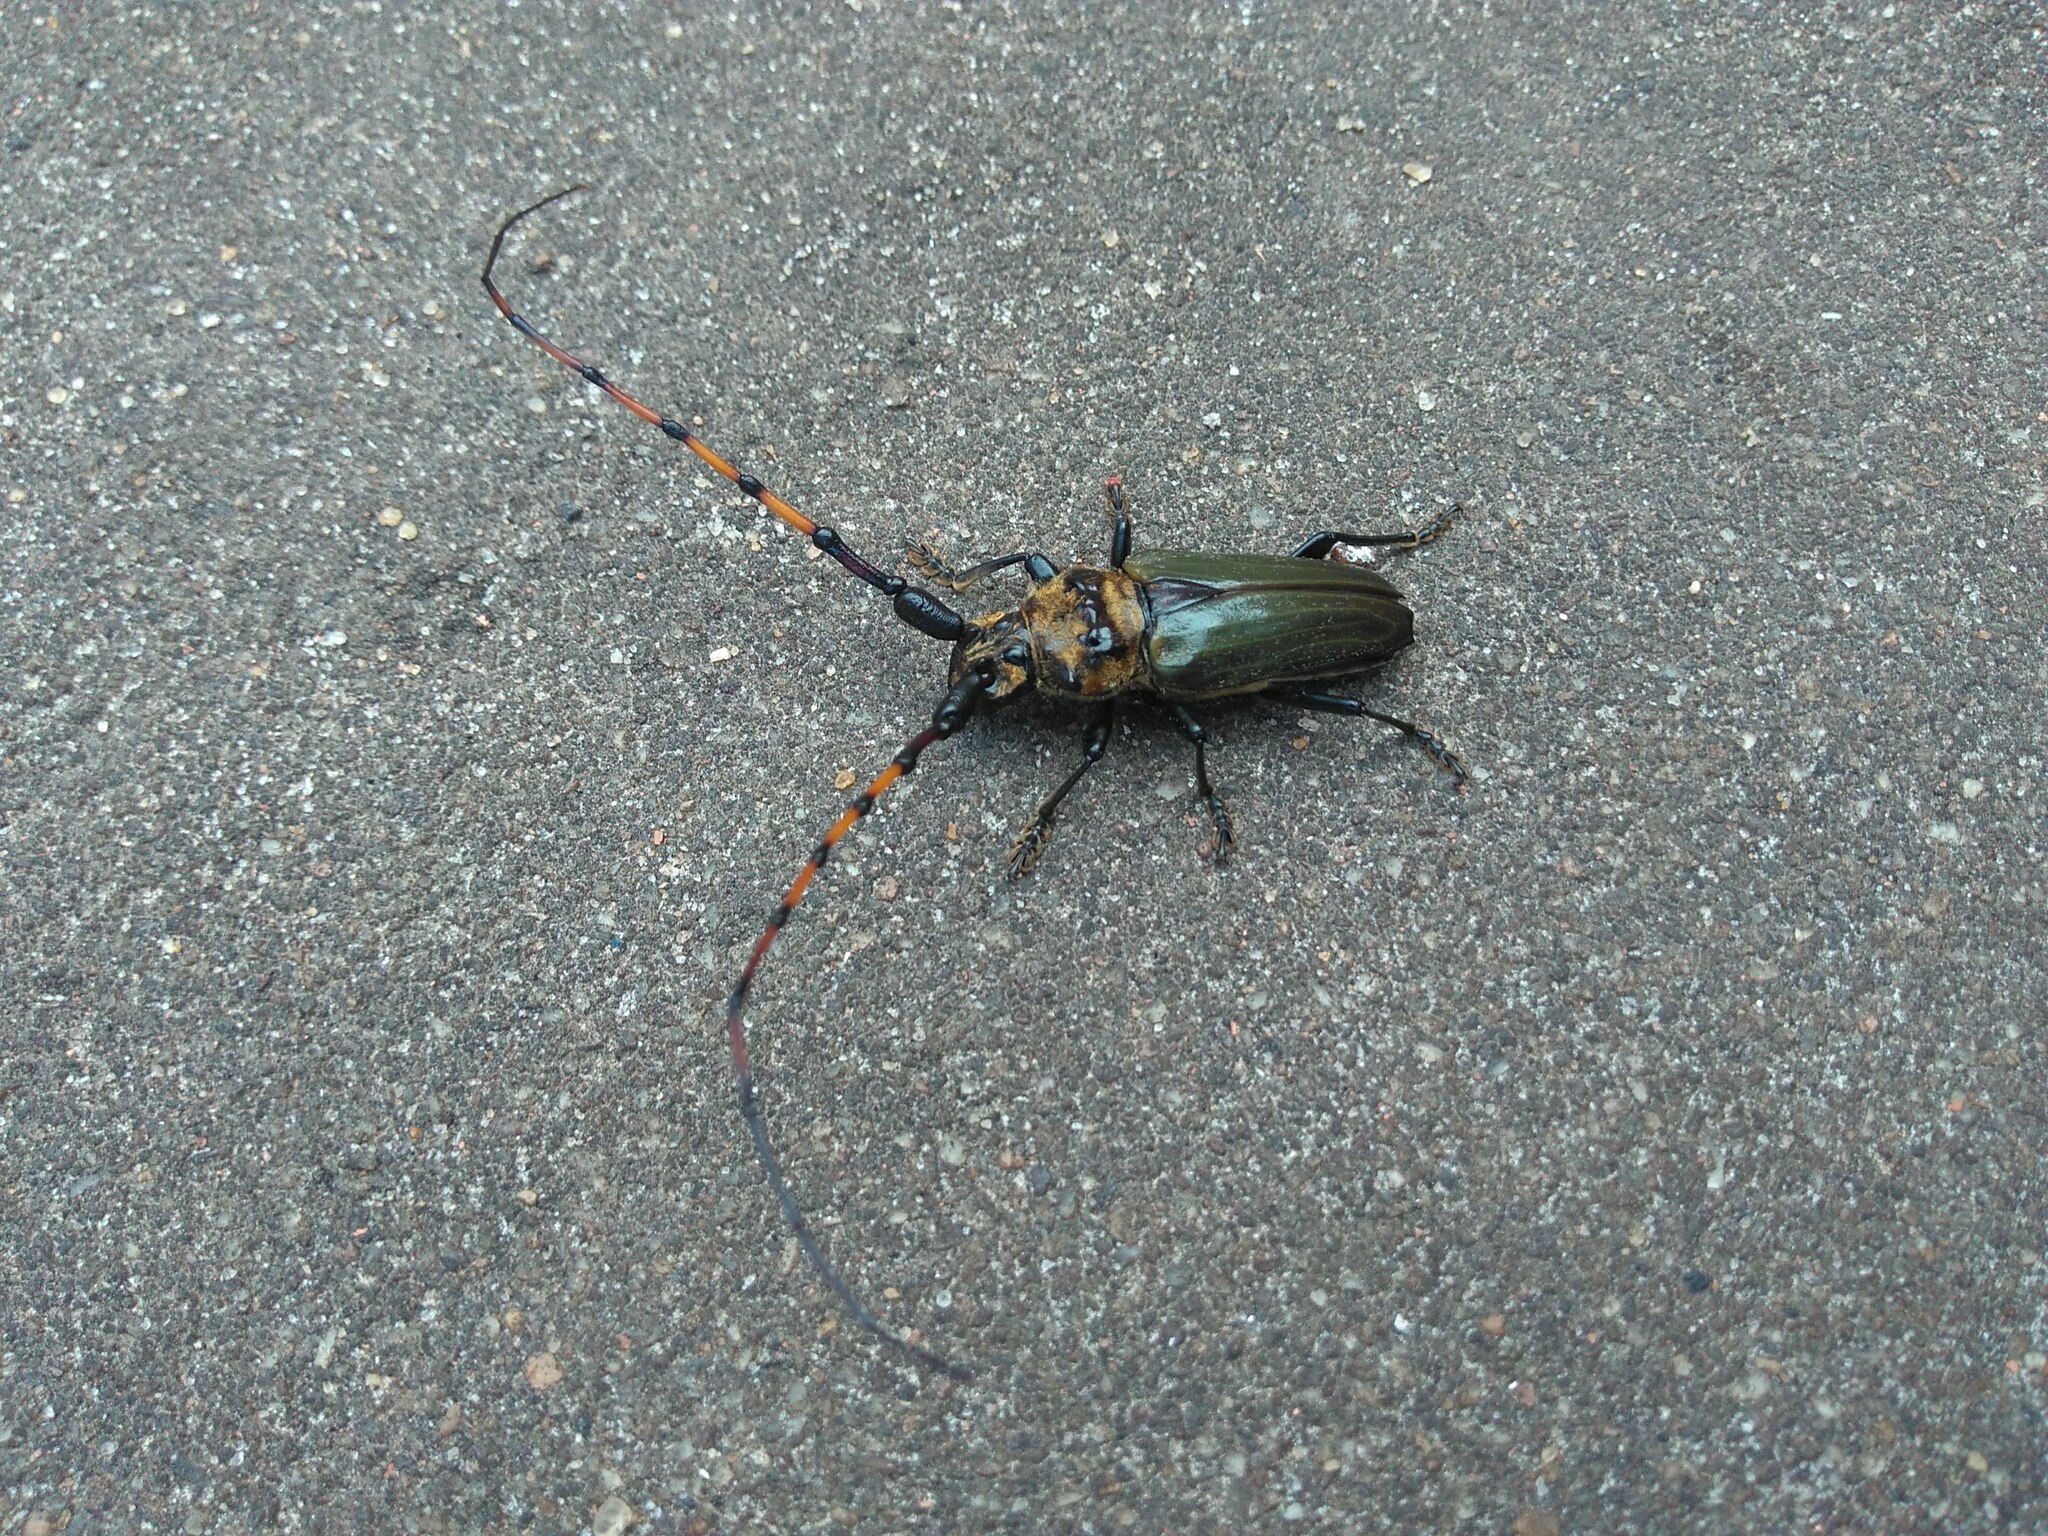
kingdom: Animalia
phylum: Arthropoda
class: Insecta
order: Coleoptera
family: Cerambycidae
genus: Retrachydes
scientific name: Retrachydes thoracicus
